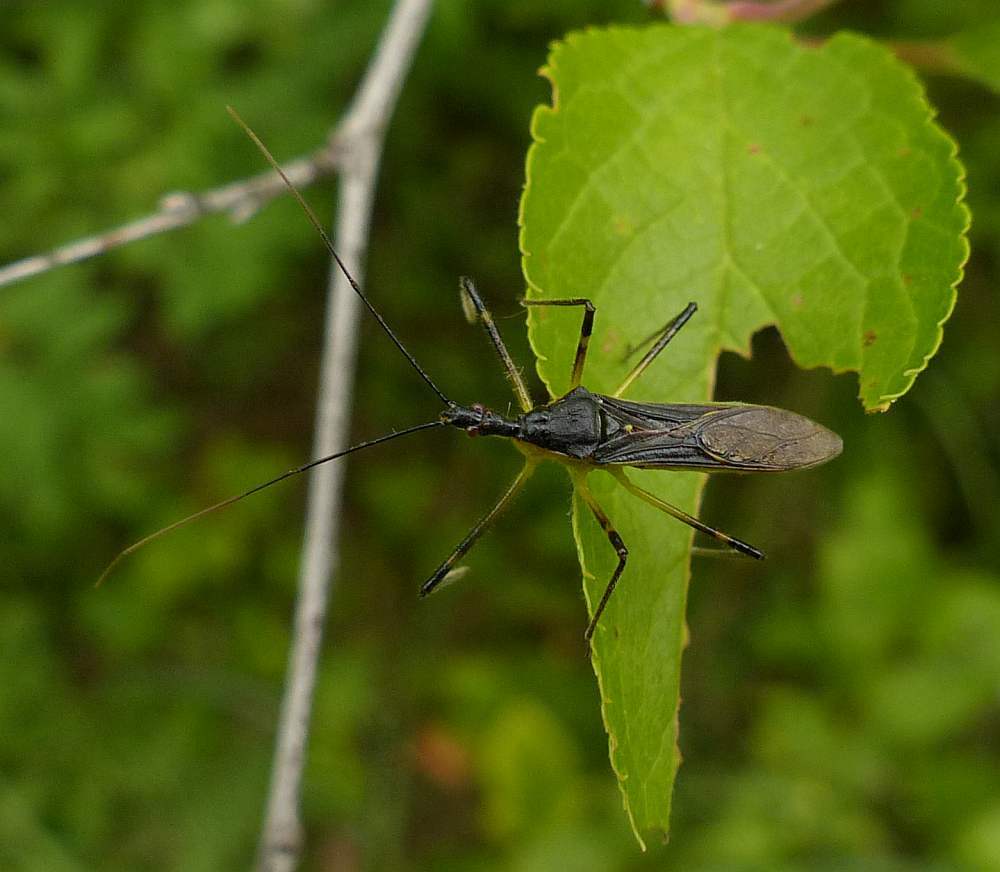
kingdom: Animalia
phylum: Arthropoda
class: Insecta
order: Hemiptera
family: Reduviidae
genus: Zelus
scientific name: Zelus luridus
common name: Pale green assassin bug
